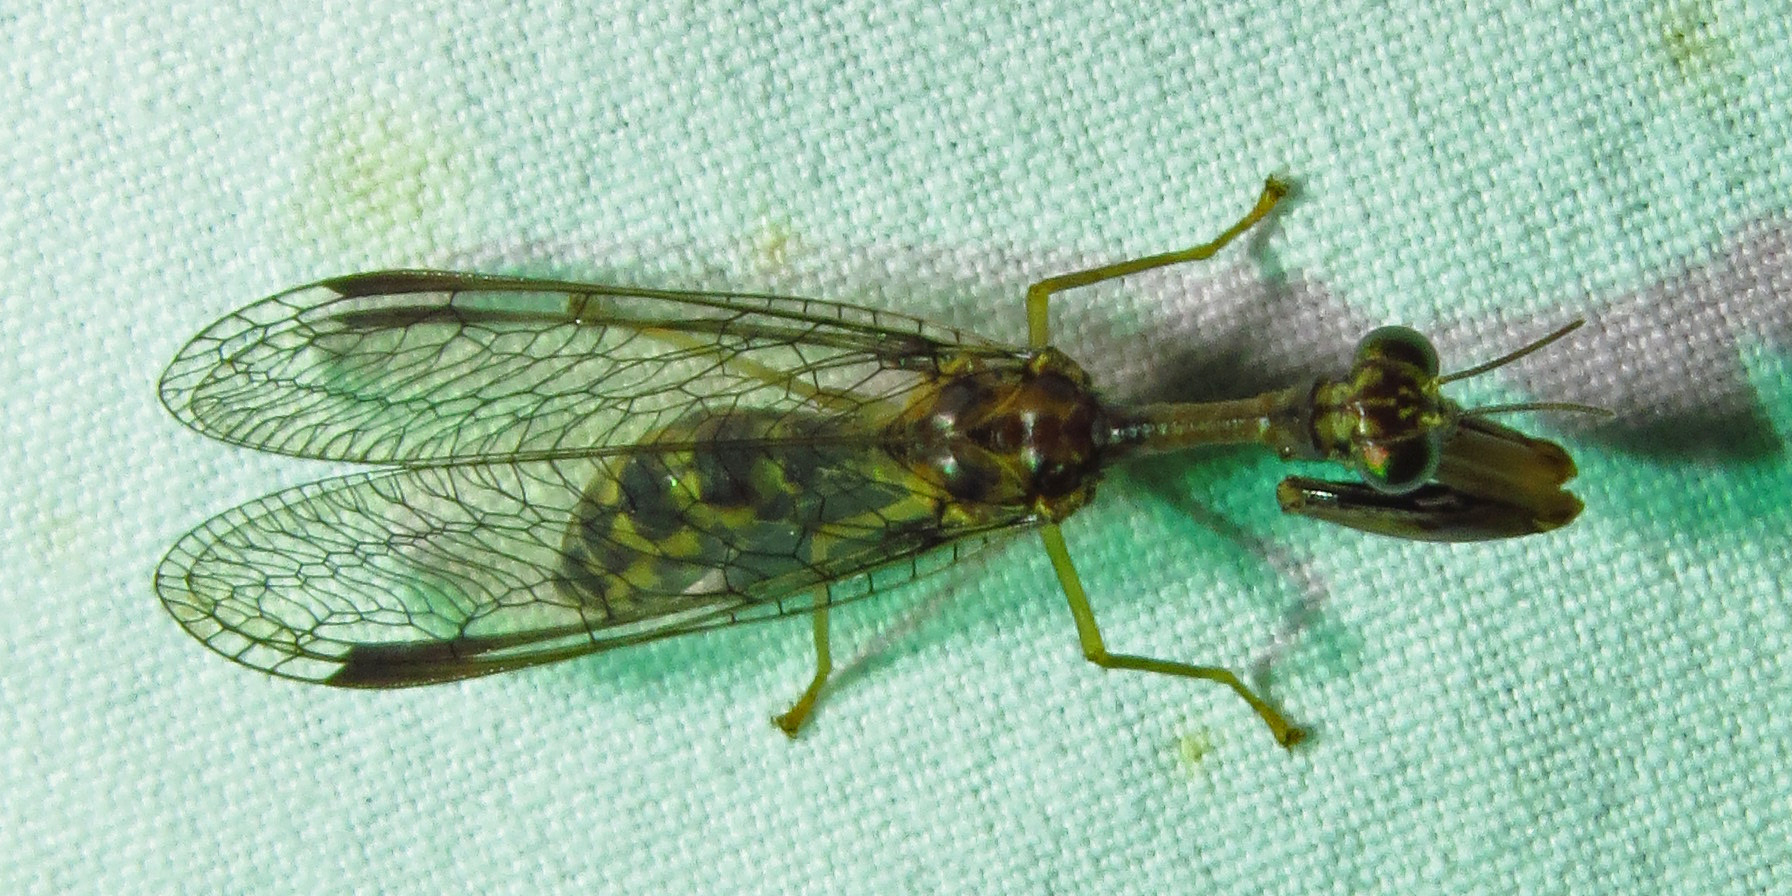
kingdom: Animalia
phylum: Arthropoda
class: Insecta
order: Neuroptera
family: Mantispidae
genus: Dicromantispa
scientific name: Dicromantispa sayi
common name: Say's mantidfly
